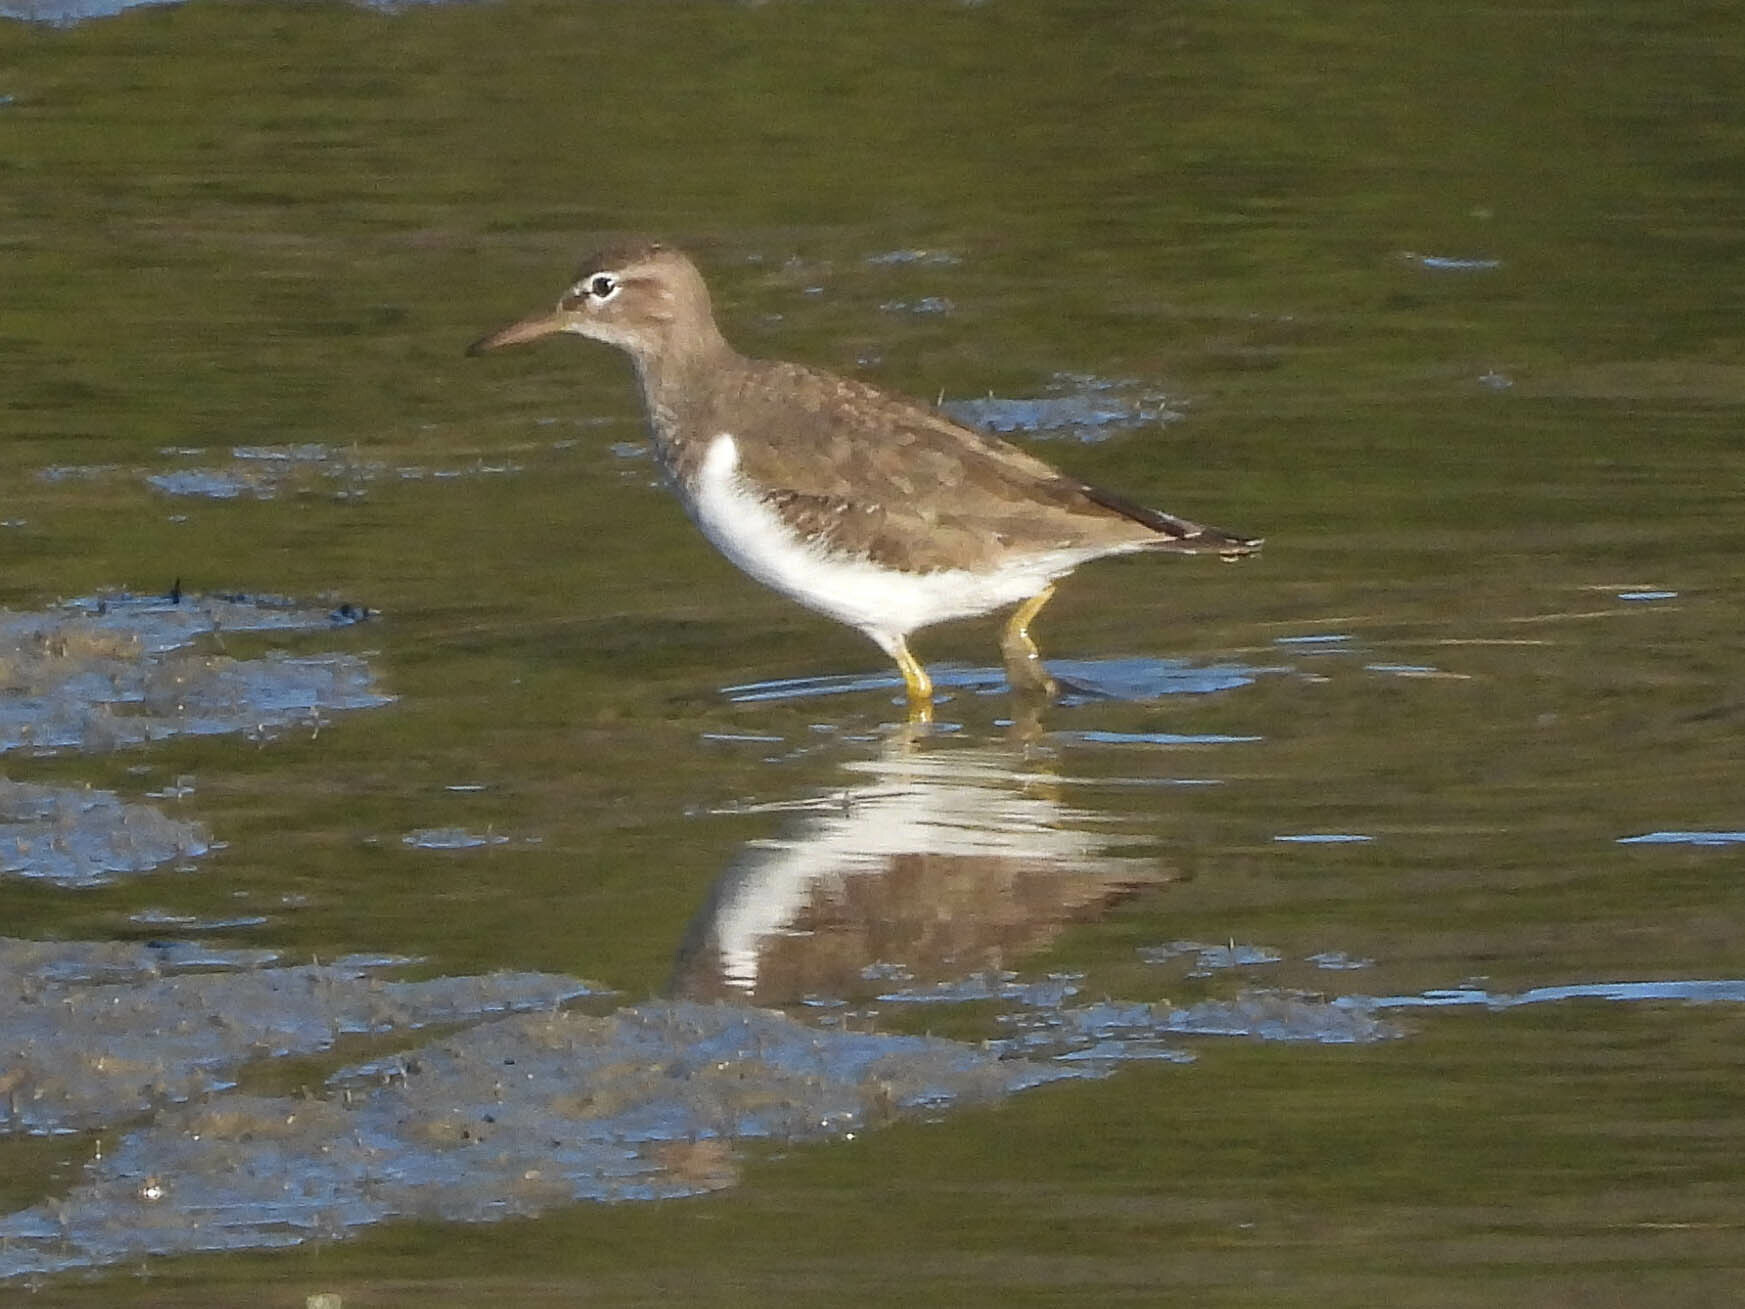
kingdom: Animalia
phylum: Chordata
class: Aves
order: Charadriiformes
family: Scolopacidae
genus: Actitis
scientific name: Actitis macularius
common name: Spotted sandpiper
